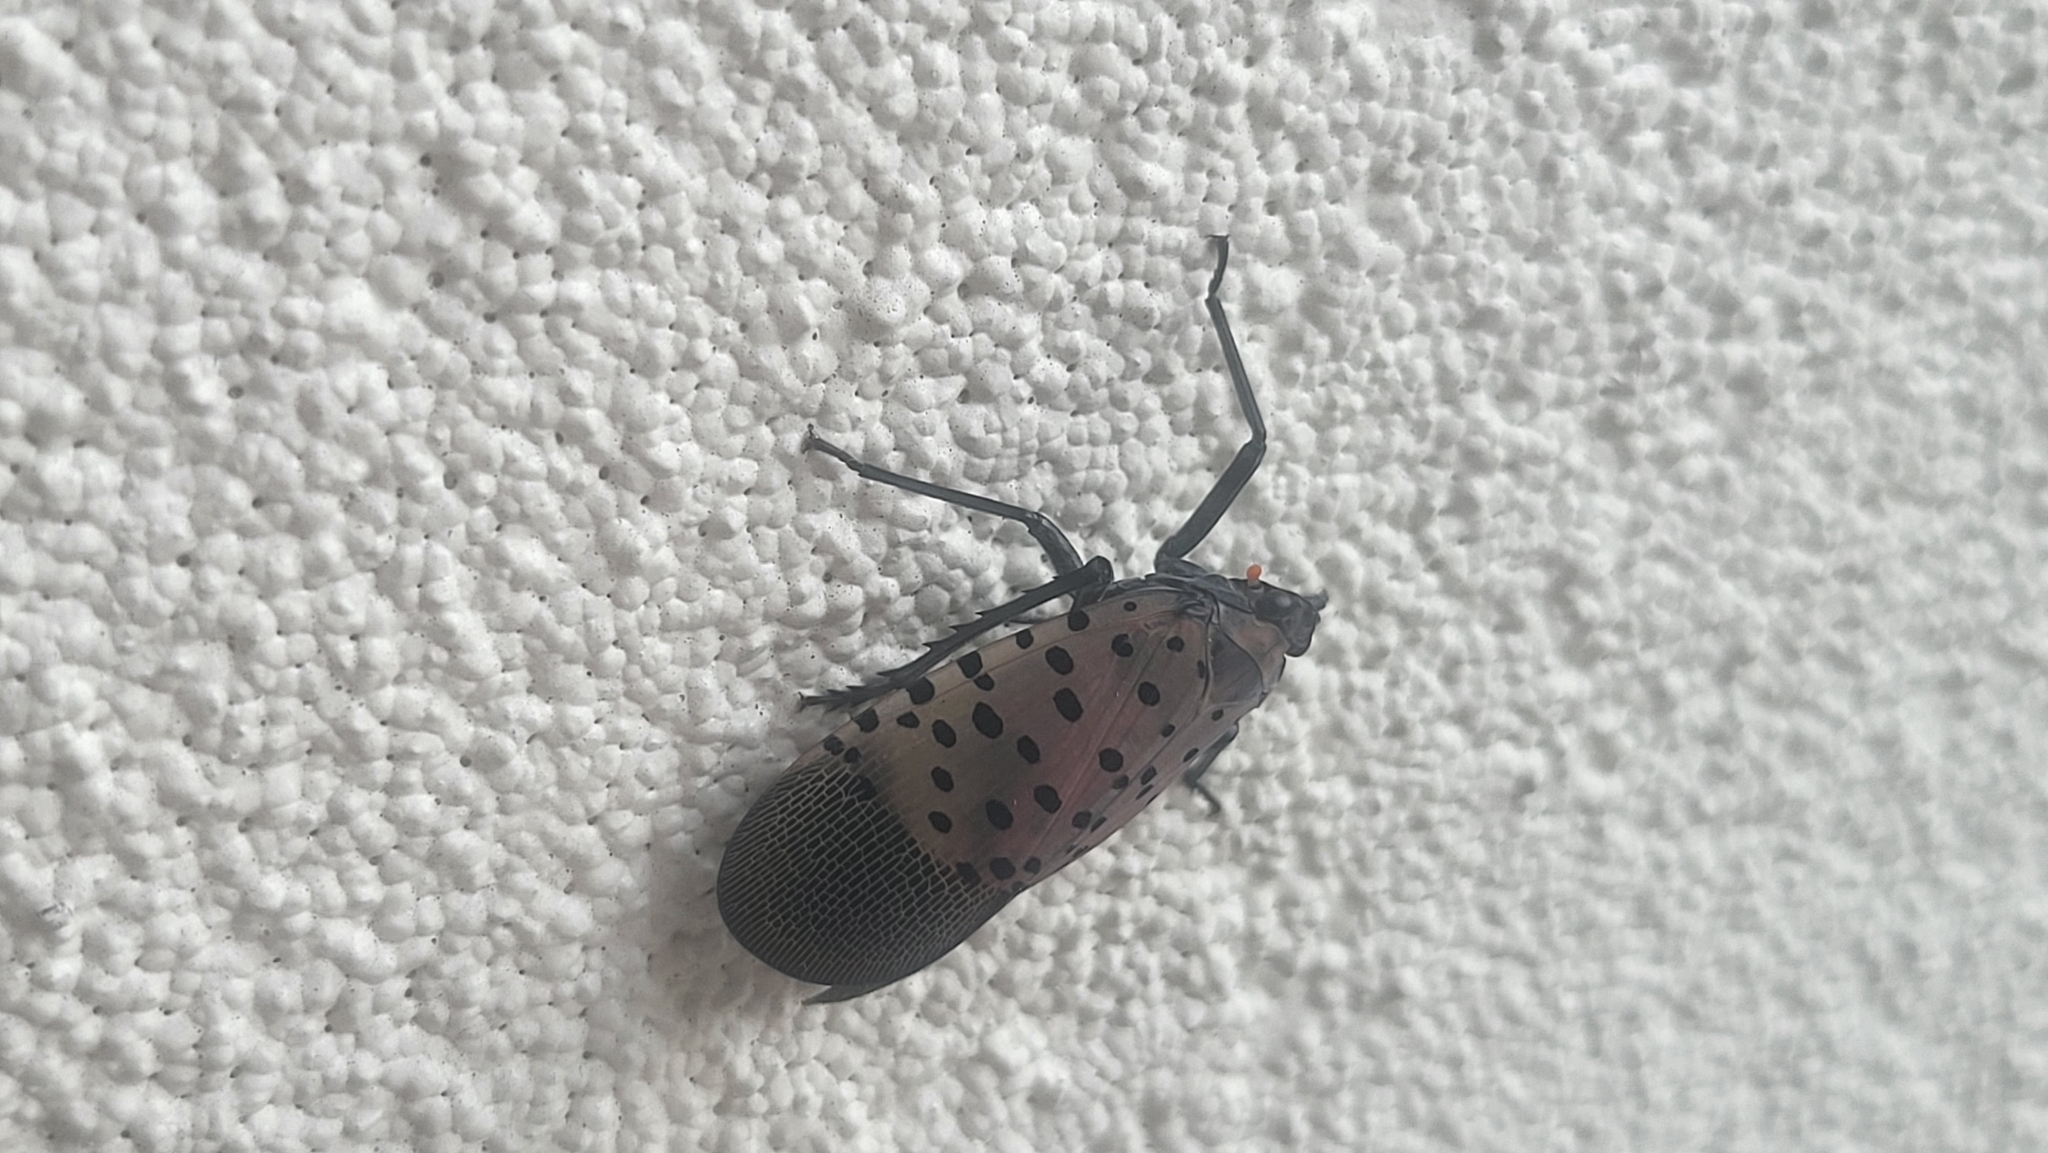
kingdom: Animalia
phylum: Arthropoda
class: Insecta
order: Hemiptera
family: Fulgoridae
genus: Lycorma
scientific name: Lycorma delicatula
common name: Spotted lanternfly
